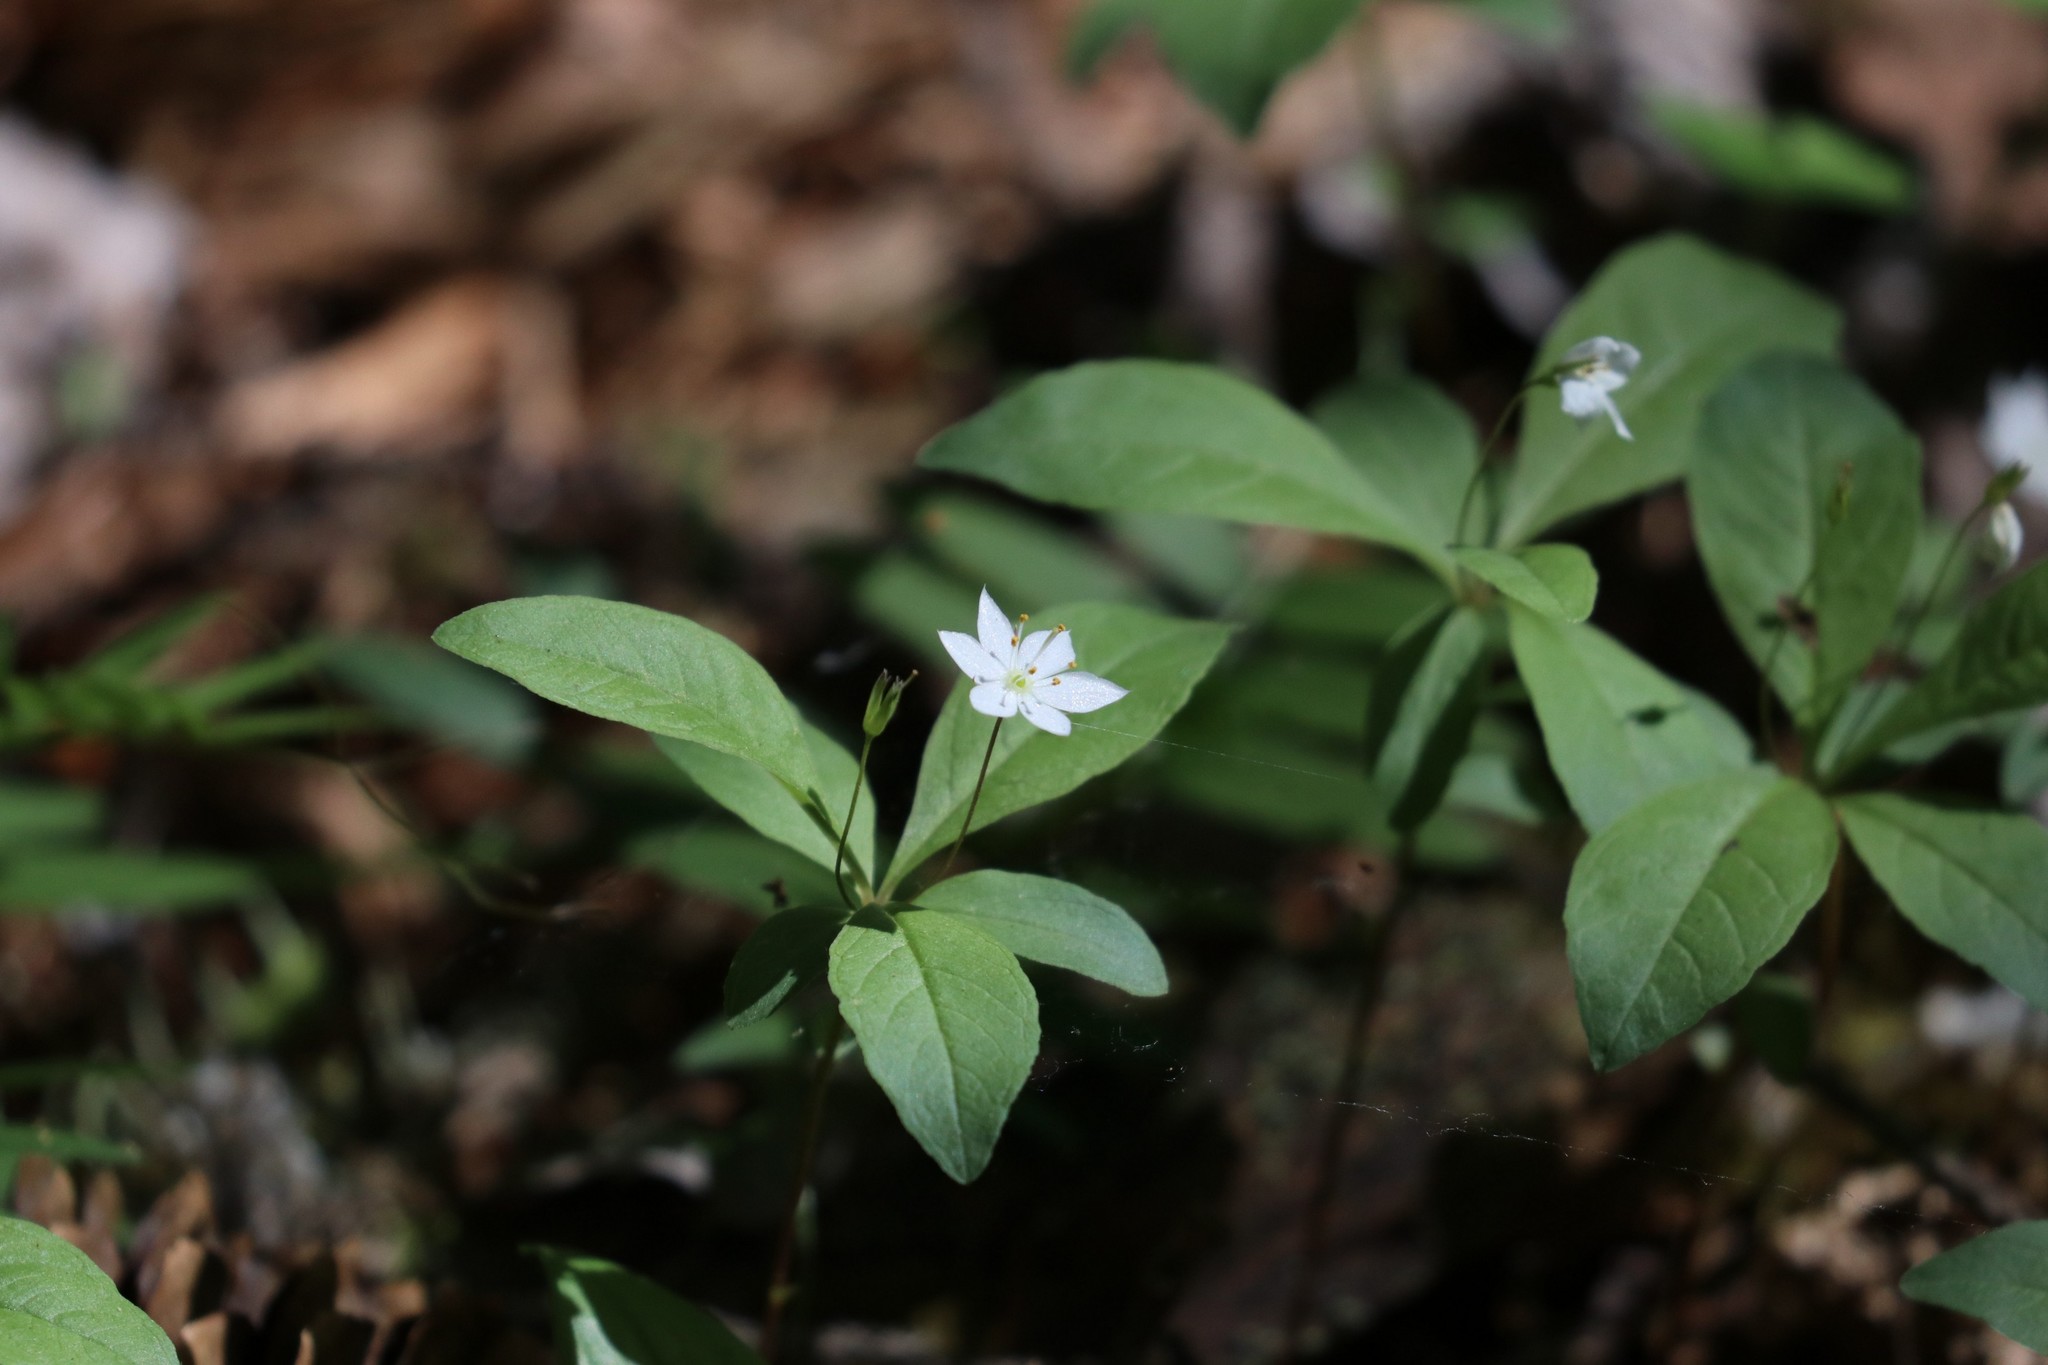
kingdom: Plantae
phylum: Tracheophyta
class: Magnoliopsida
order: Ericales
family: Primulaceae
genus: Lysimachia
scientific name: Lysimachia europaea
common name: Arctic starflower
